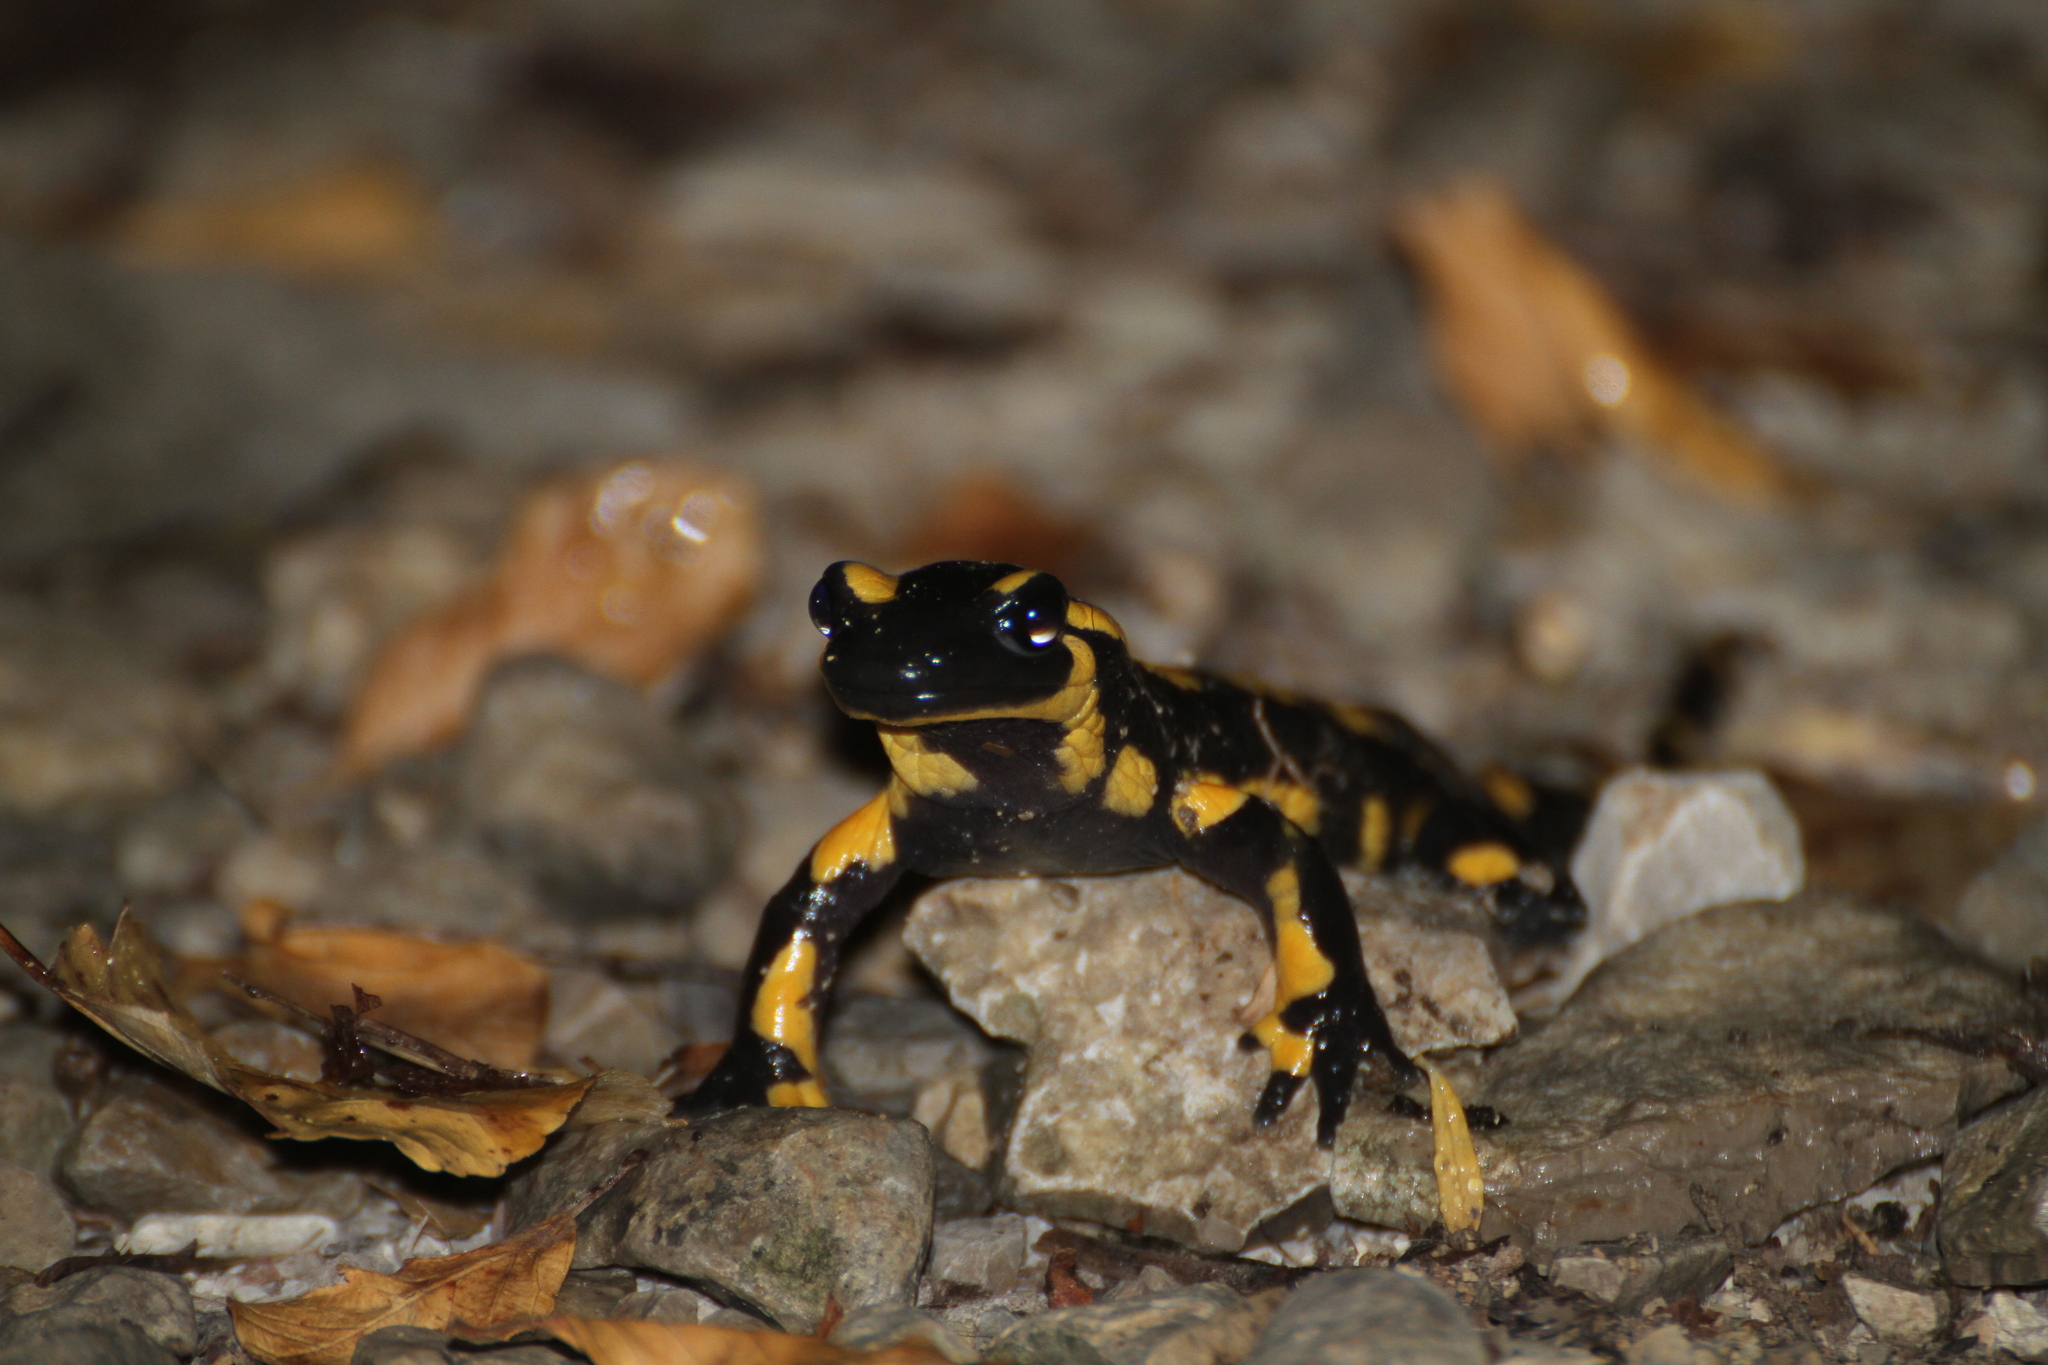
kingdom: Animalia
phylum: Chordata
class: Amphibia
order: Caudata
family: Salamandridae
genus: Salamandra
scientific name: Salamandra salamandra
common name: Fire salamander
